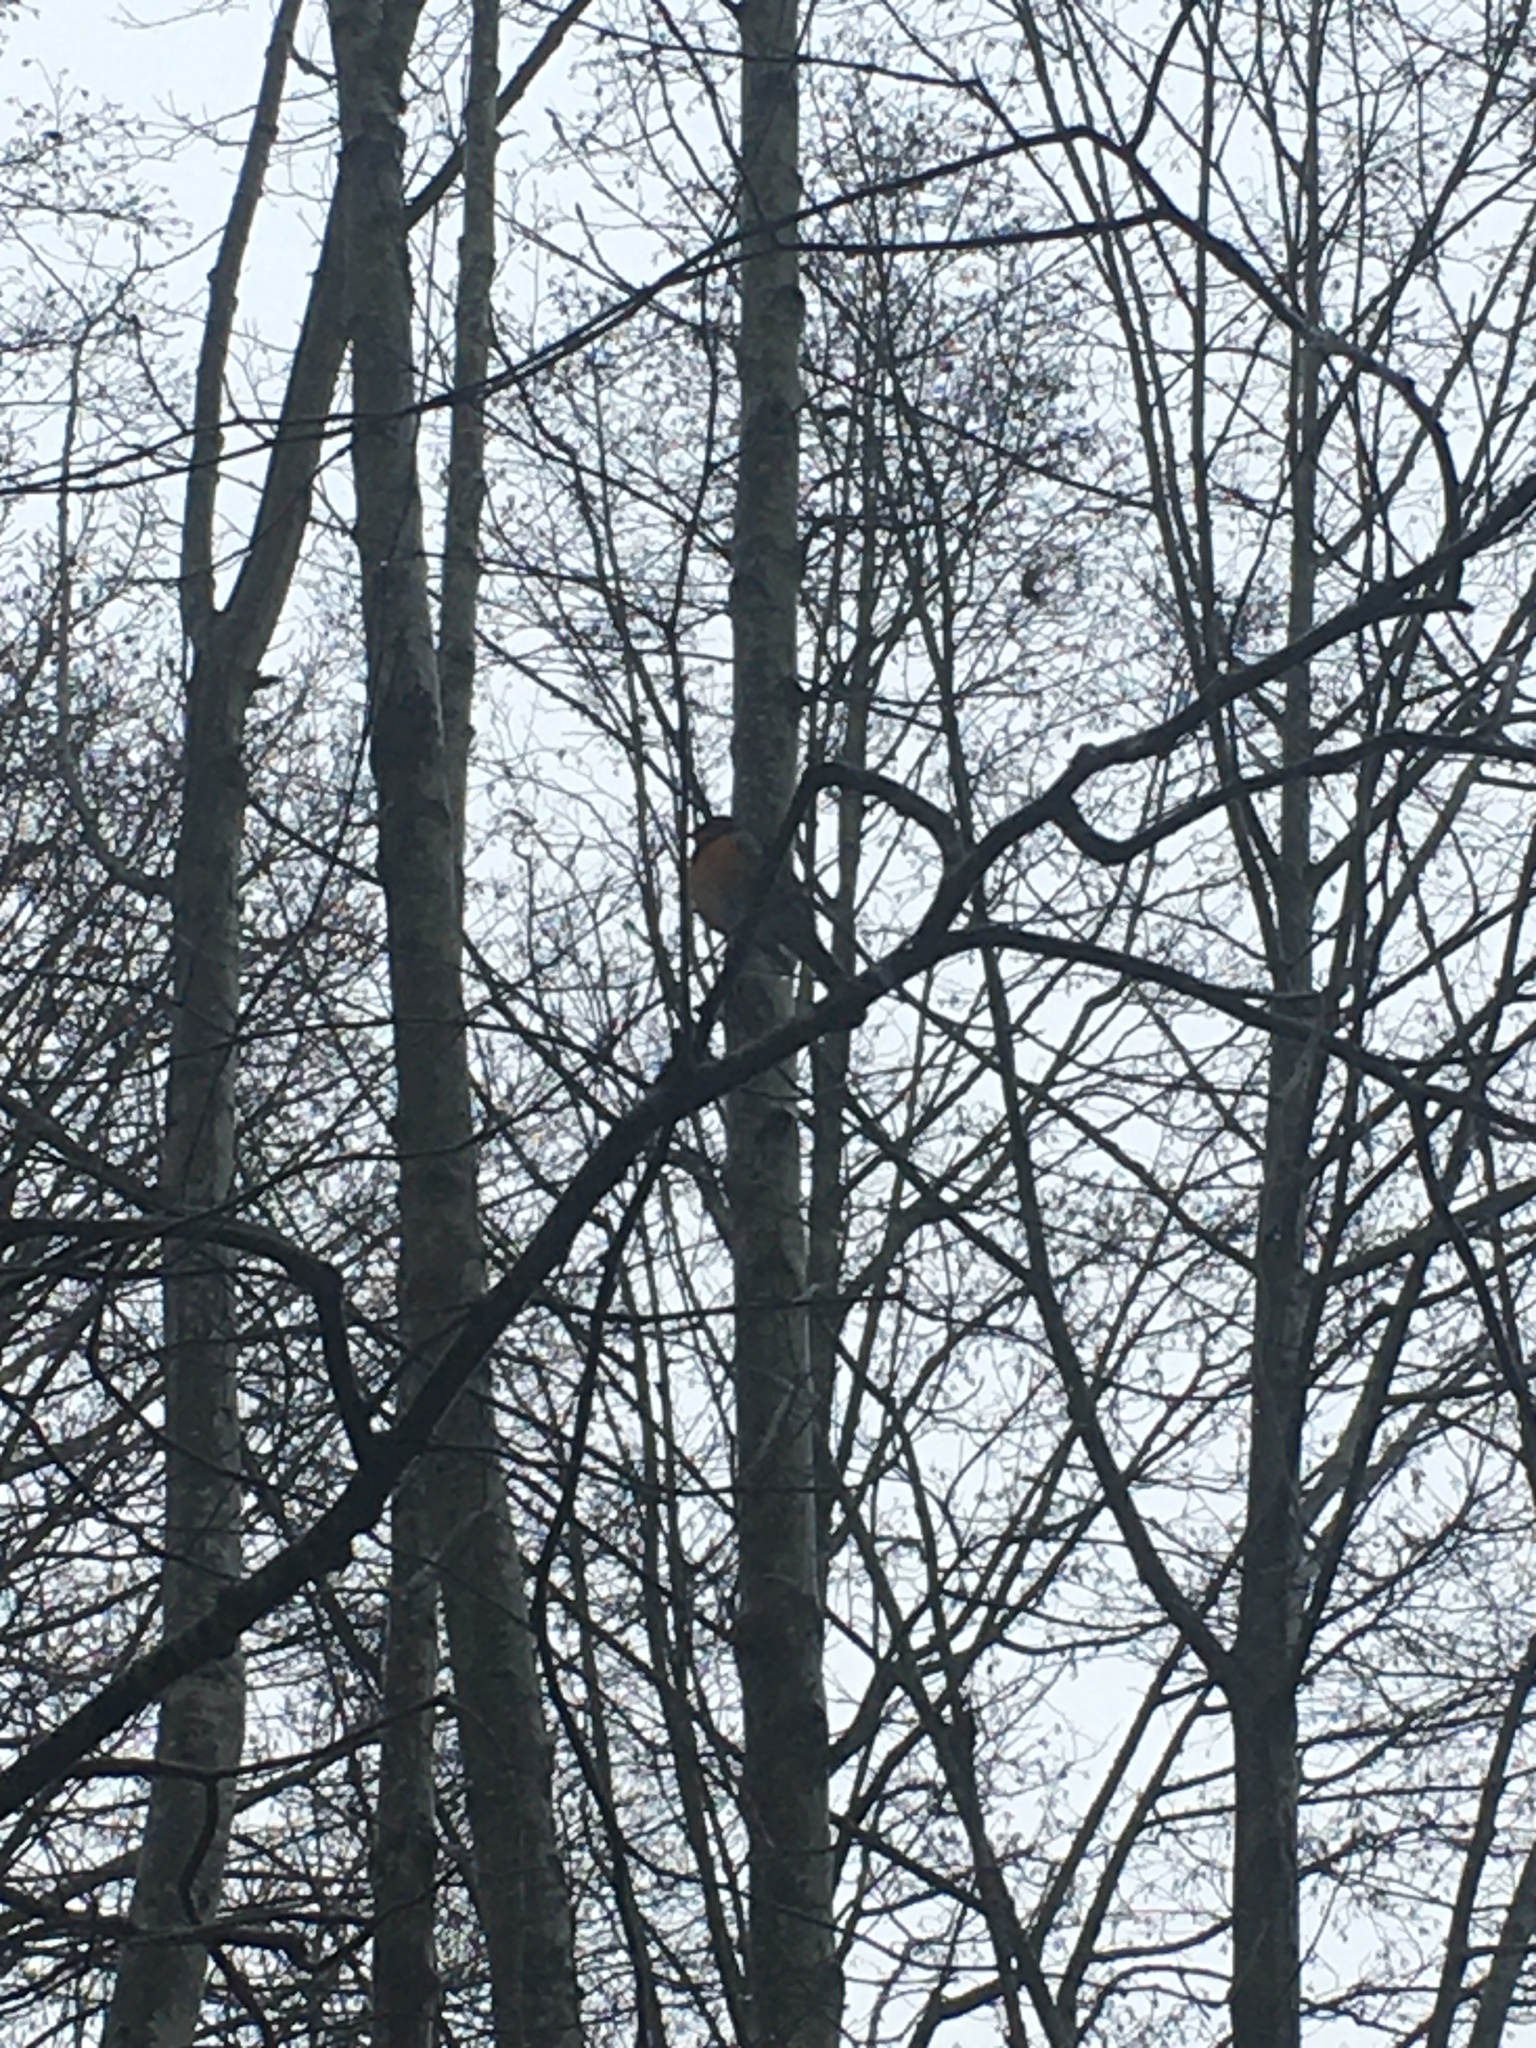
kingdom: Animalia
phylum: Chordata
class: Aves
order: Passeriformes
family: Turdidae
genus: Ixoreus
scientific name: Ixoreus naevius
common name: Varied thrush
